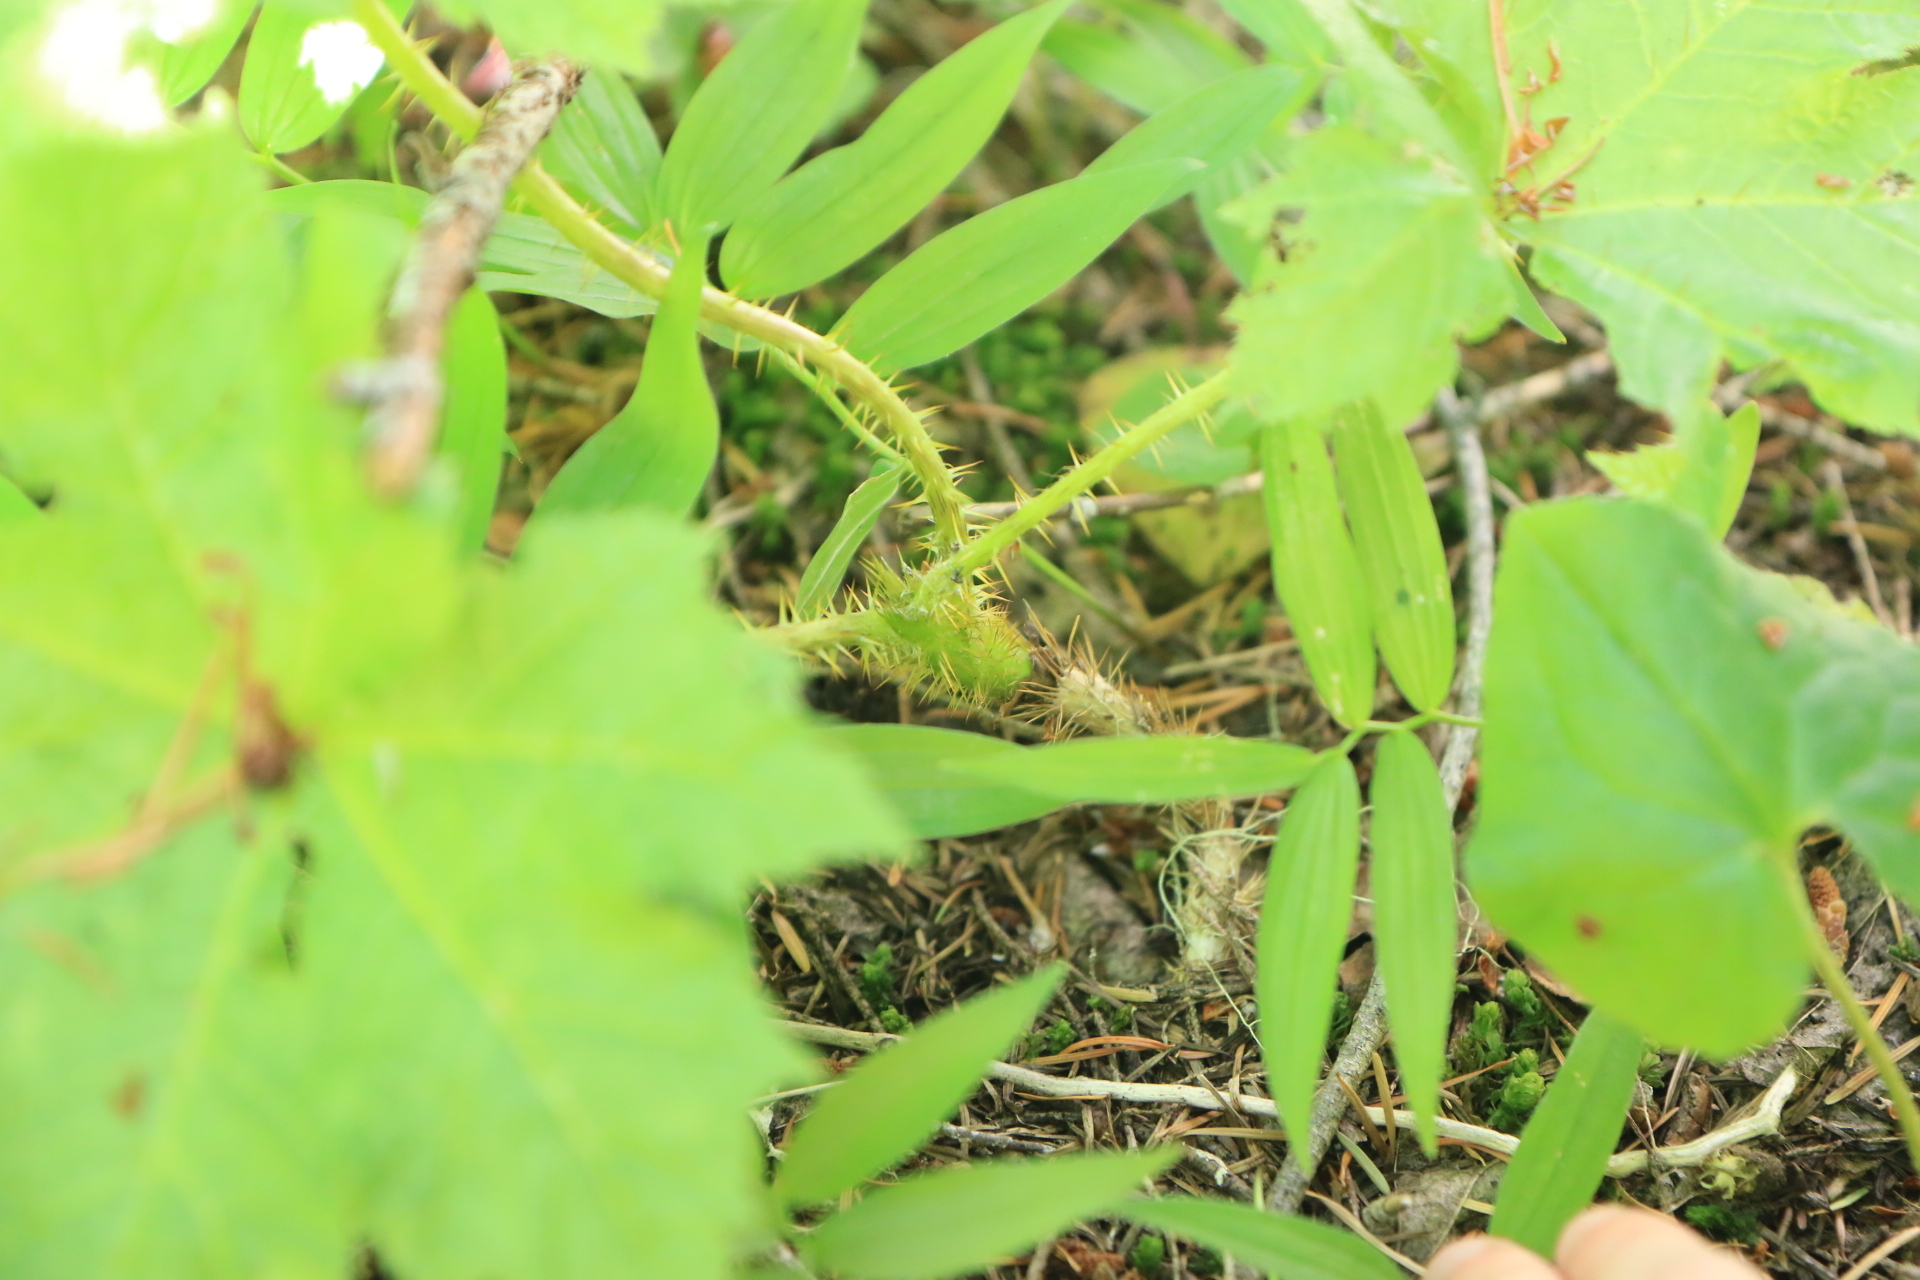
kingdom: Plantae
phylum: Tracheophyta
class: Magnoliopsida
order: Apiales
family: Araliaceae
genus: Oplopanax
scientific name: Oplopanax horridus
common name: Devil's walking-stick
